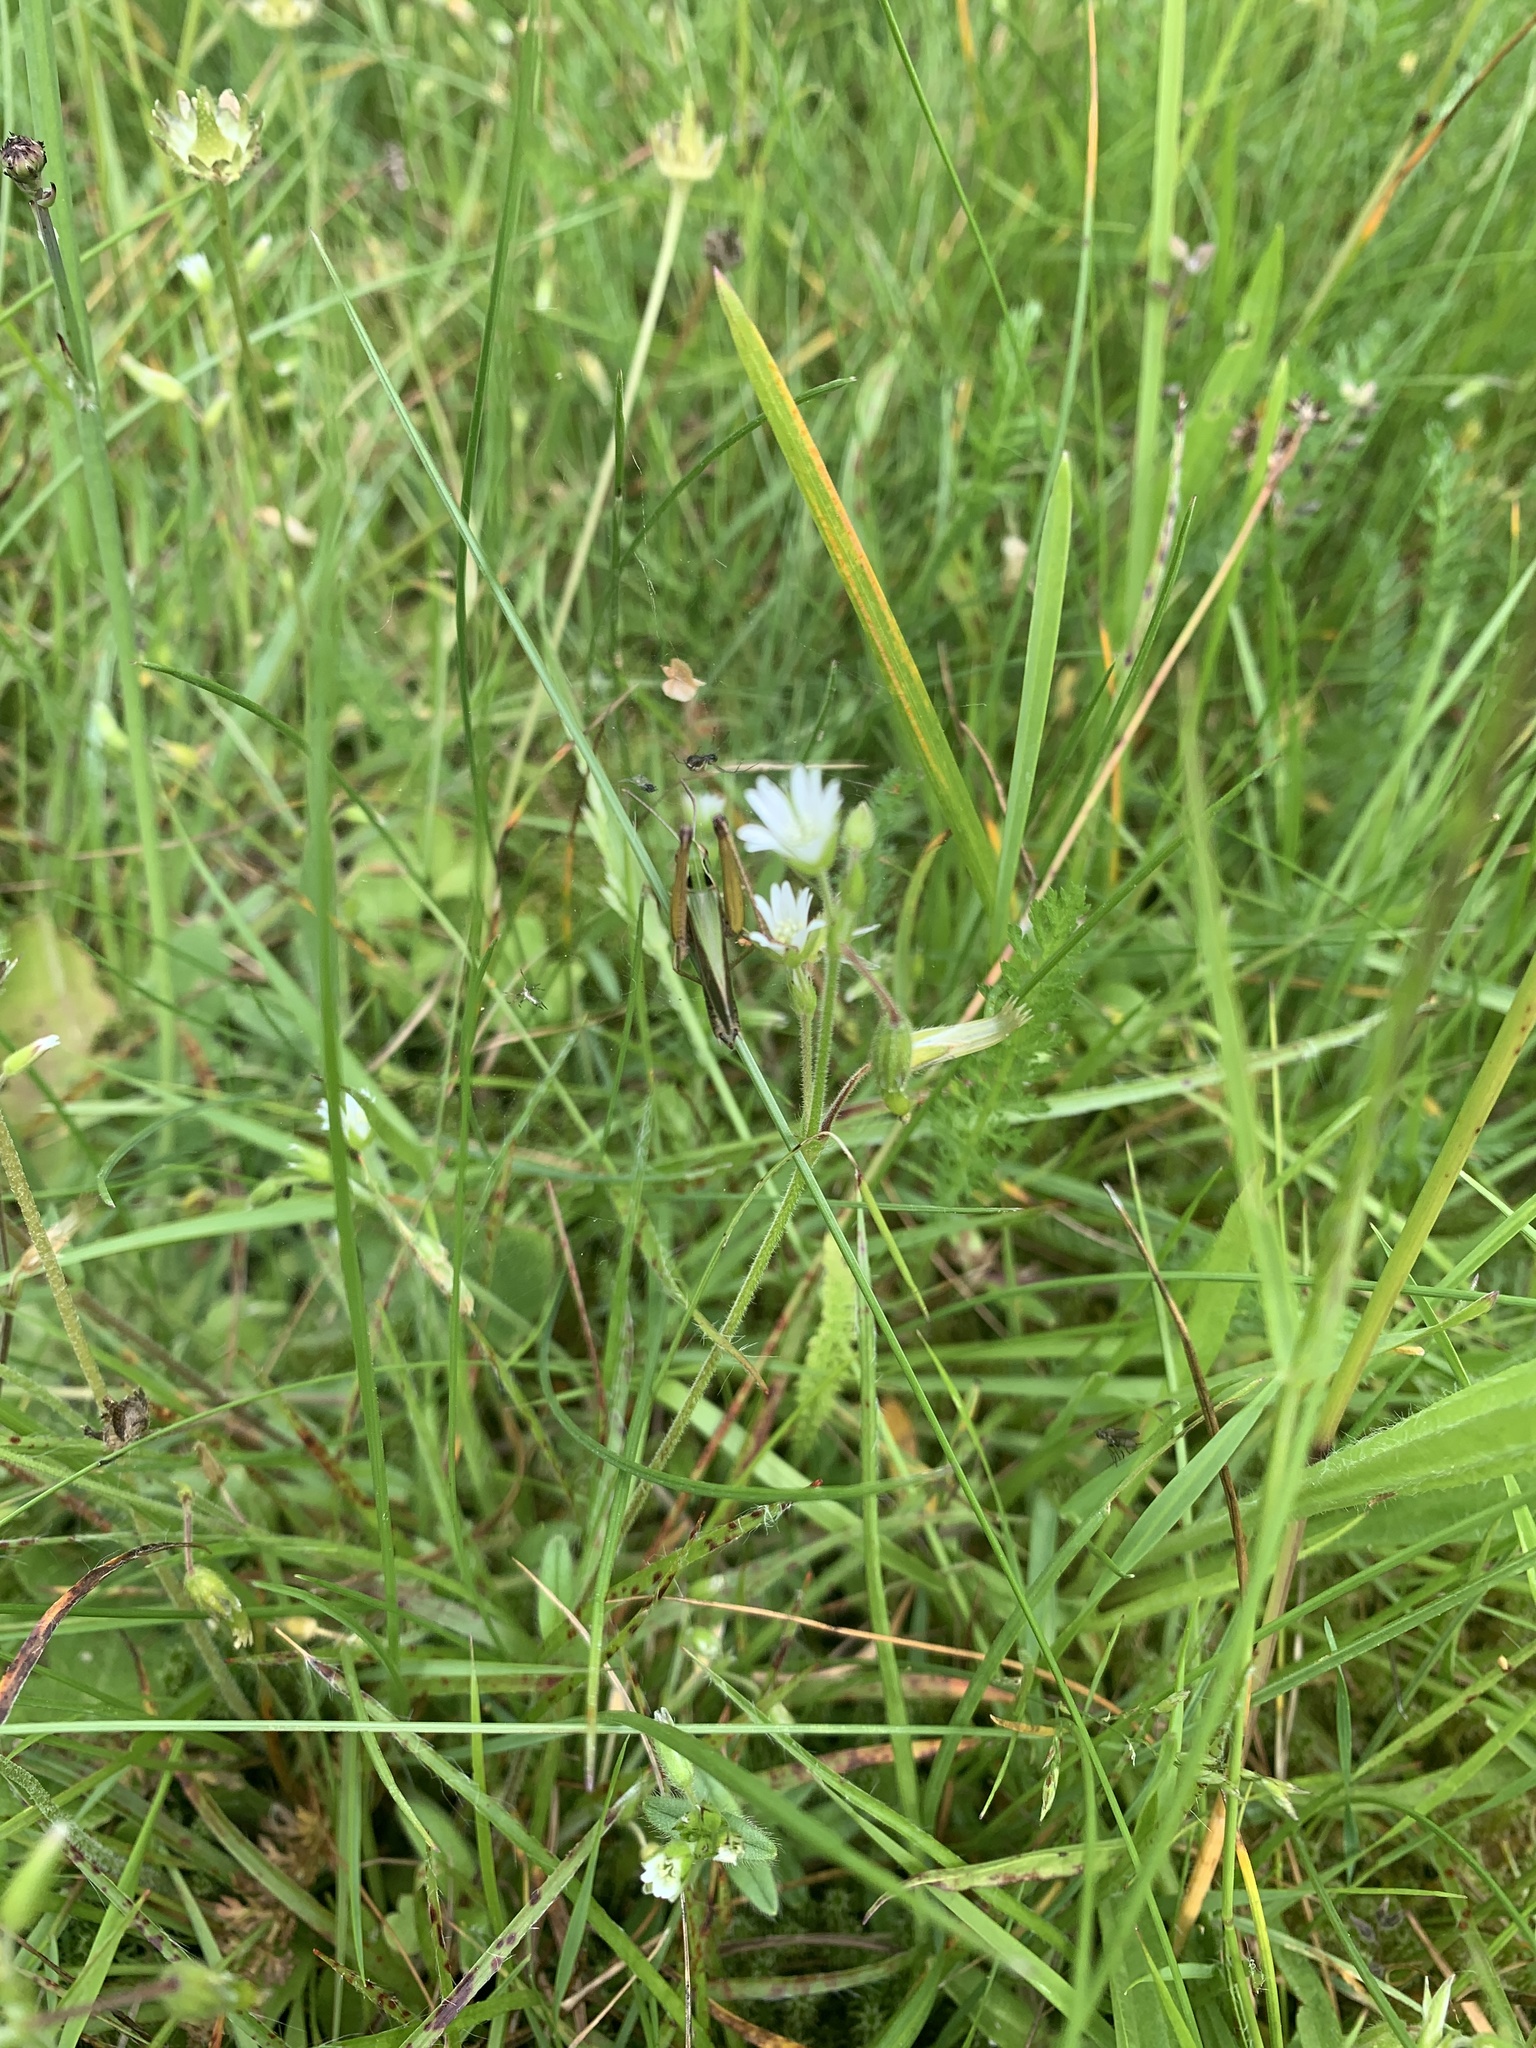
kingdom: Animalia
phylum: Arthropoda
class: Insecta
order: Orthoptera
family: Acrididae
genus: Omocestus
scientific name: Omocestus viridulus
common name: Common green grasshopper
